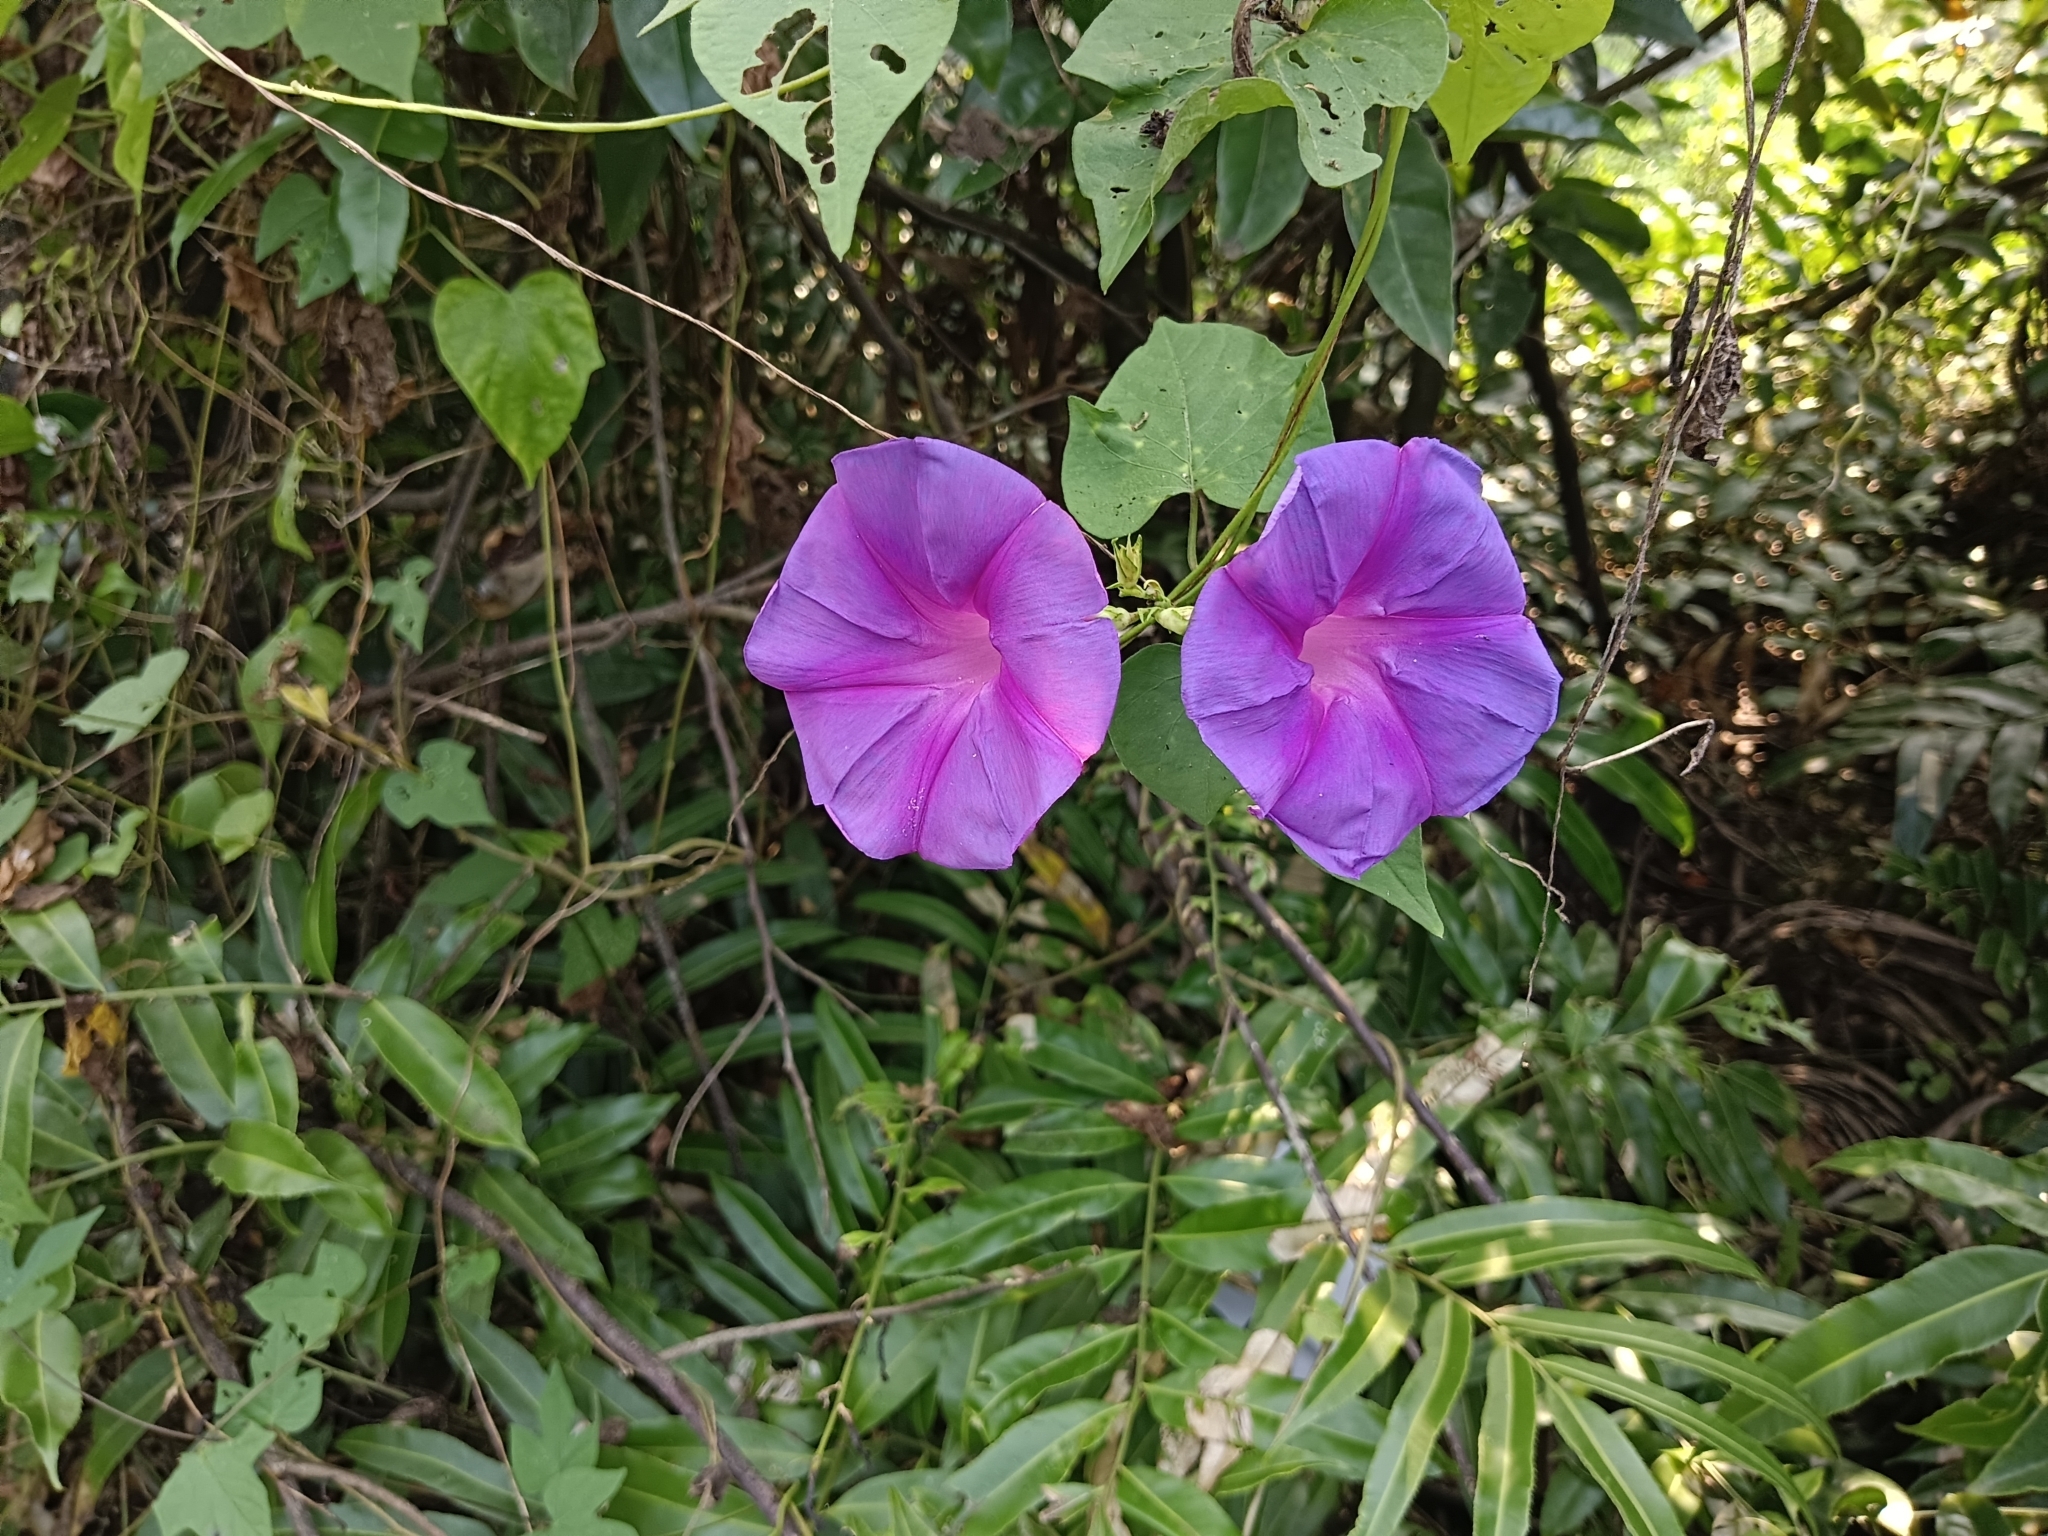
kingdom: Plantae
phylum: Tracheophyta
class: Magnoliopsida
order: Solanales
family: Convolvulaceae
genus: Ipomoea
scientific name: Ipomoea indica
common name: Blue dawnflower
